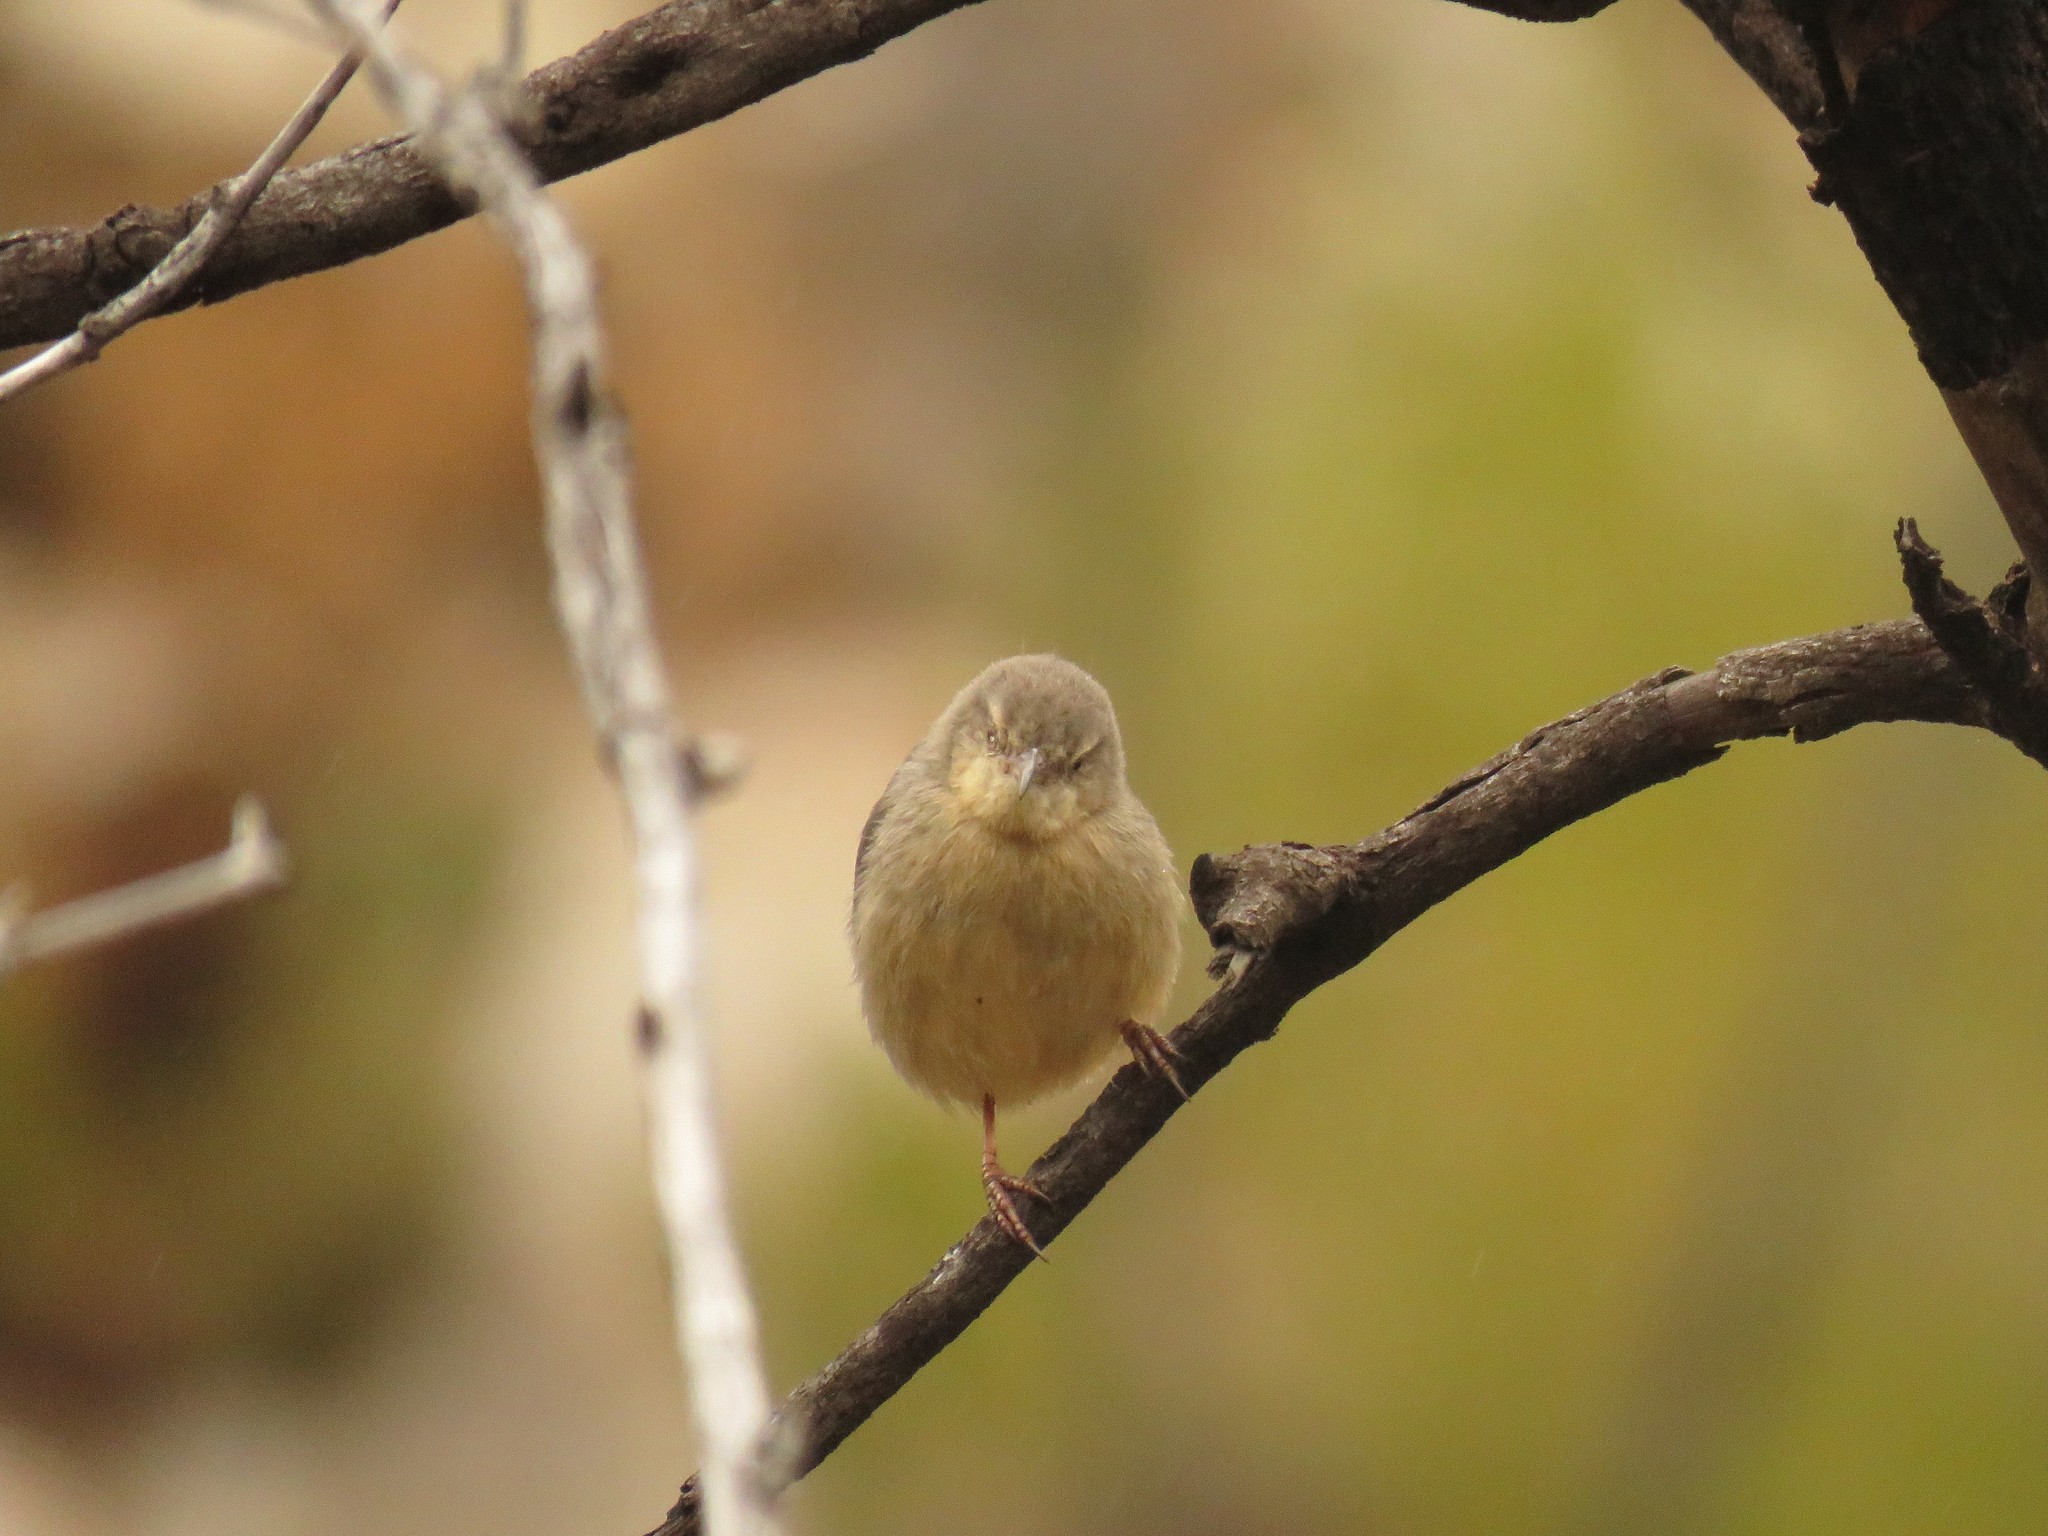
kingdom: Animalia
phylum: Chordata
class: Aves
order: Passeriformes
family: Macrosphenidae
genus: Sylvietta
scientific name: Sylvietta rufescens
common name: Long-billed crombec
